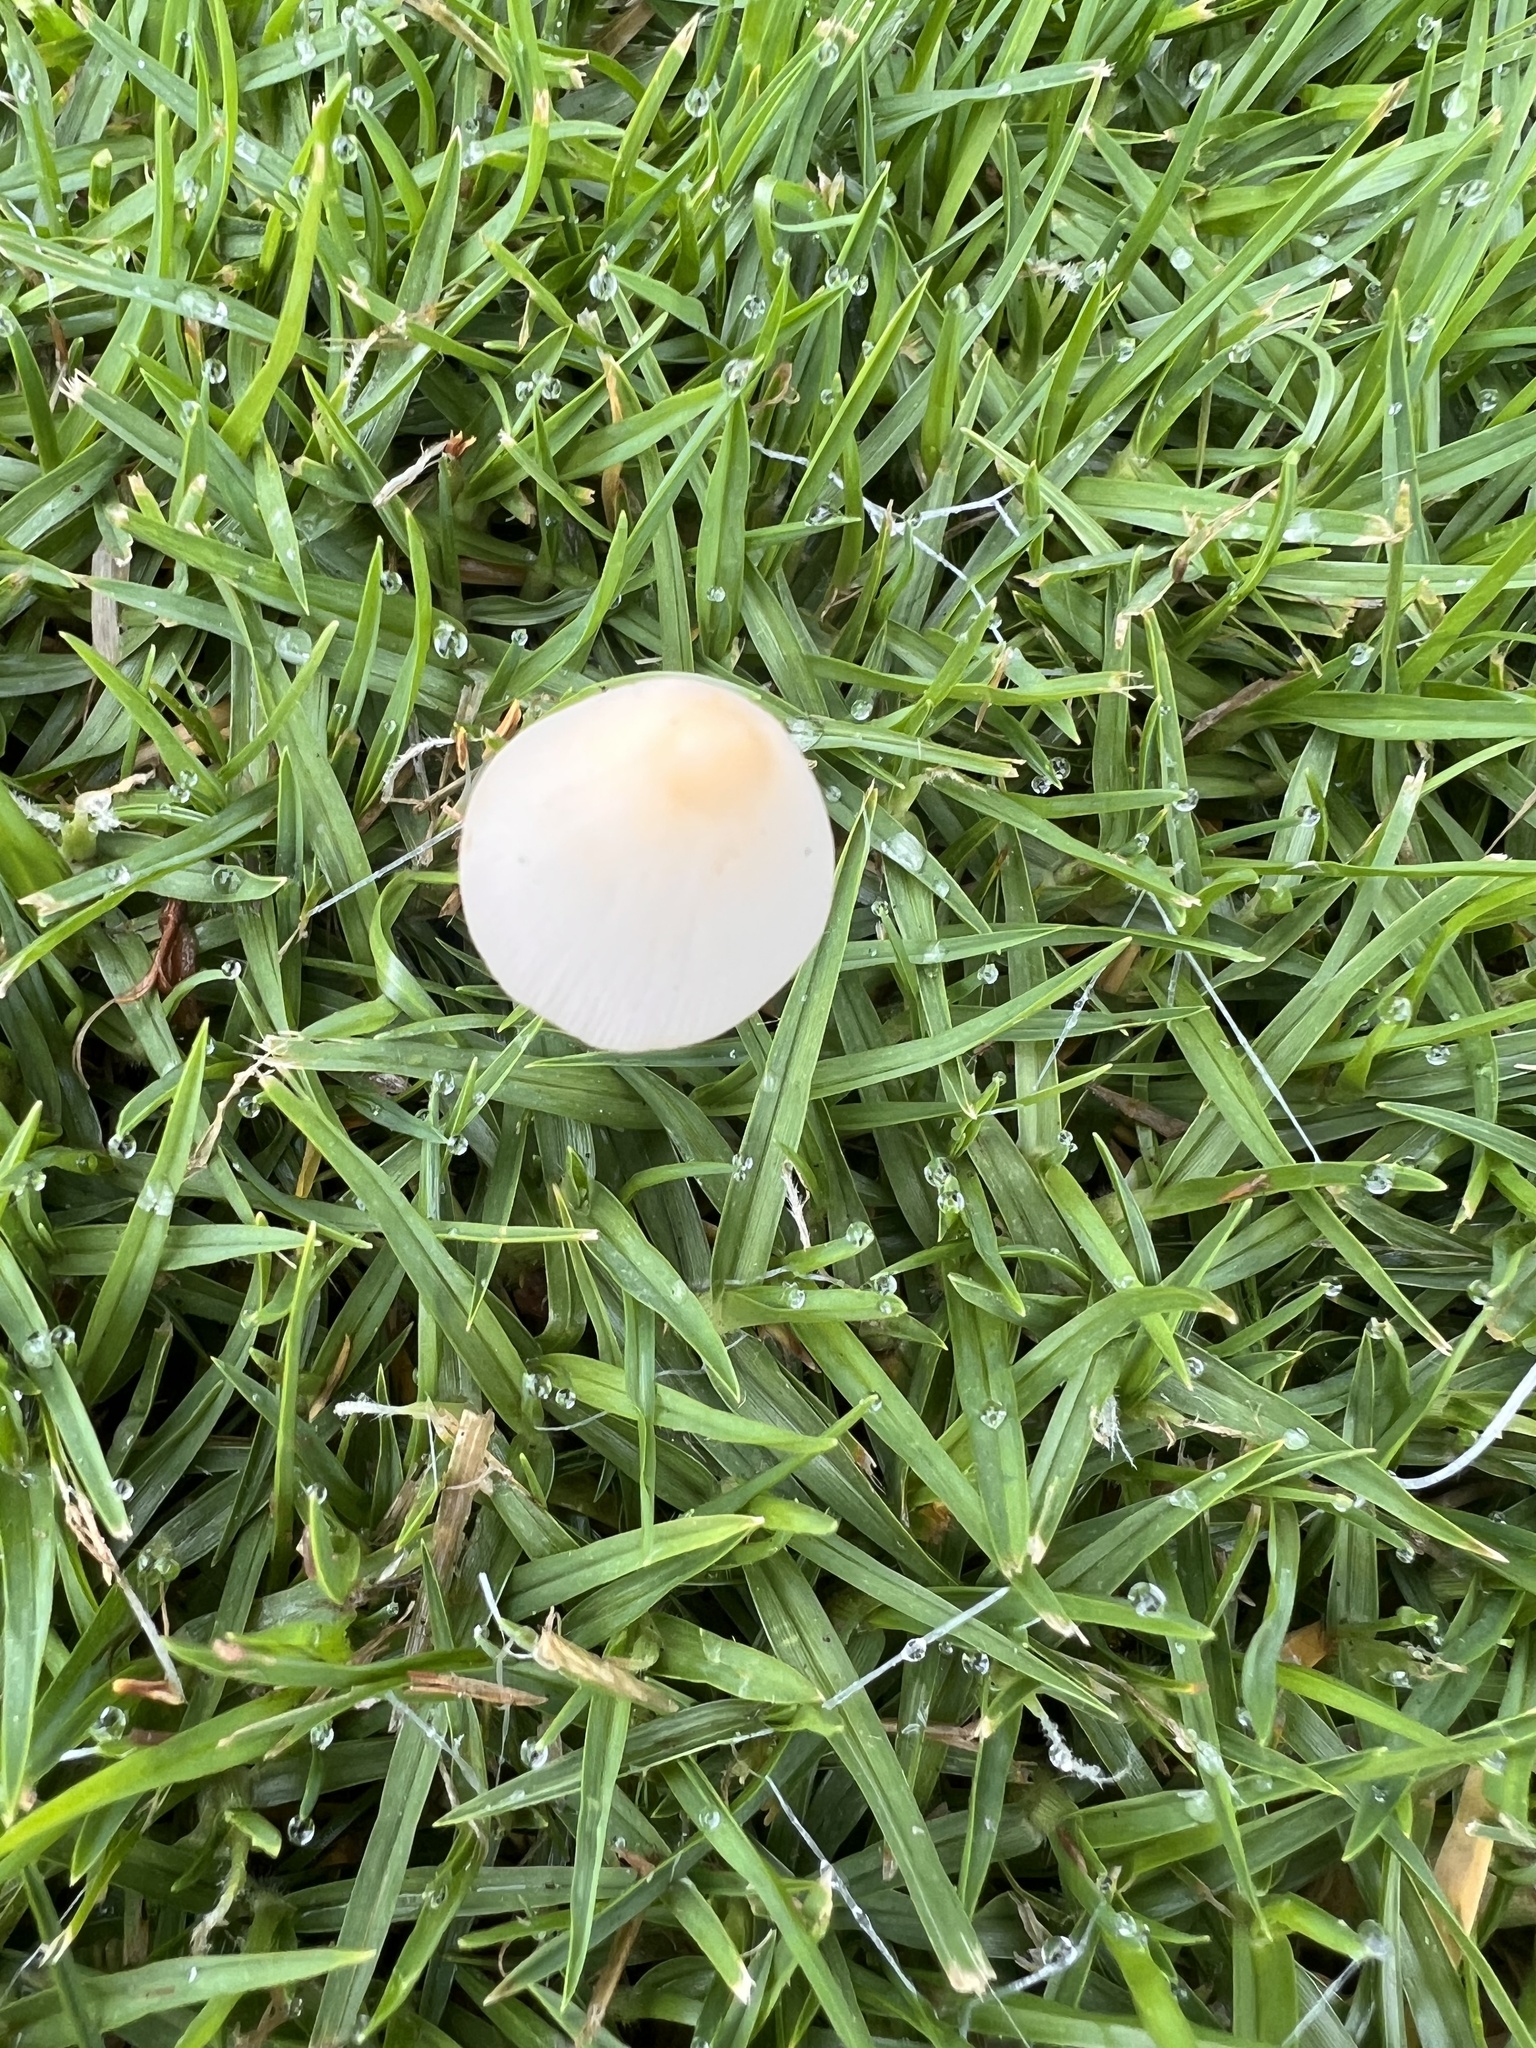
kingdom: Fungi
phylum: Basidiomycota
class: Agaricomycetes
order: Agaricales
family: Bolbitiaceae
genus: Conocybe
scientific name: Conocybe apala
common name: Milky conecap
